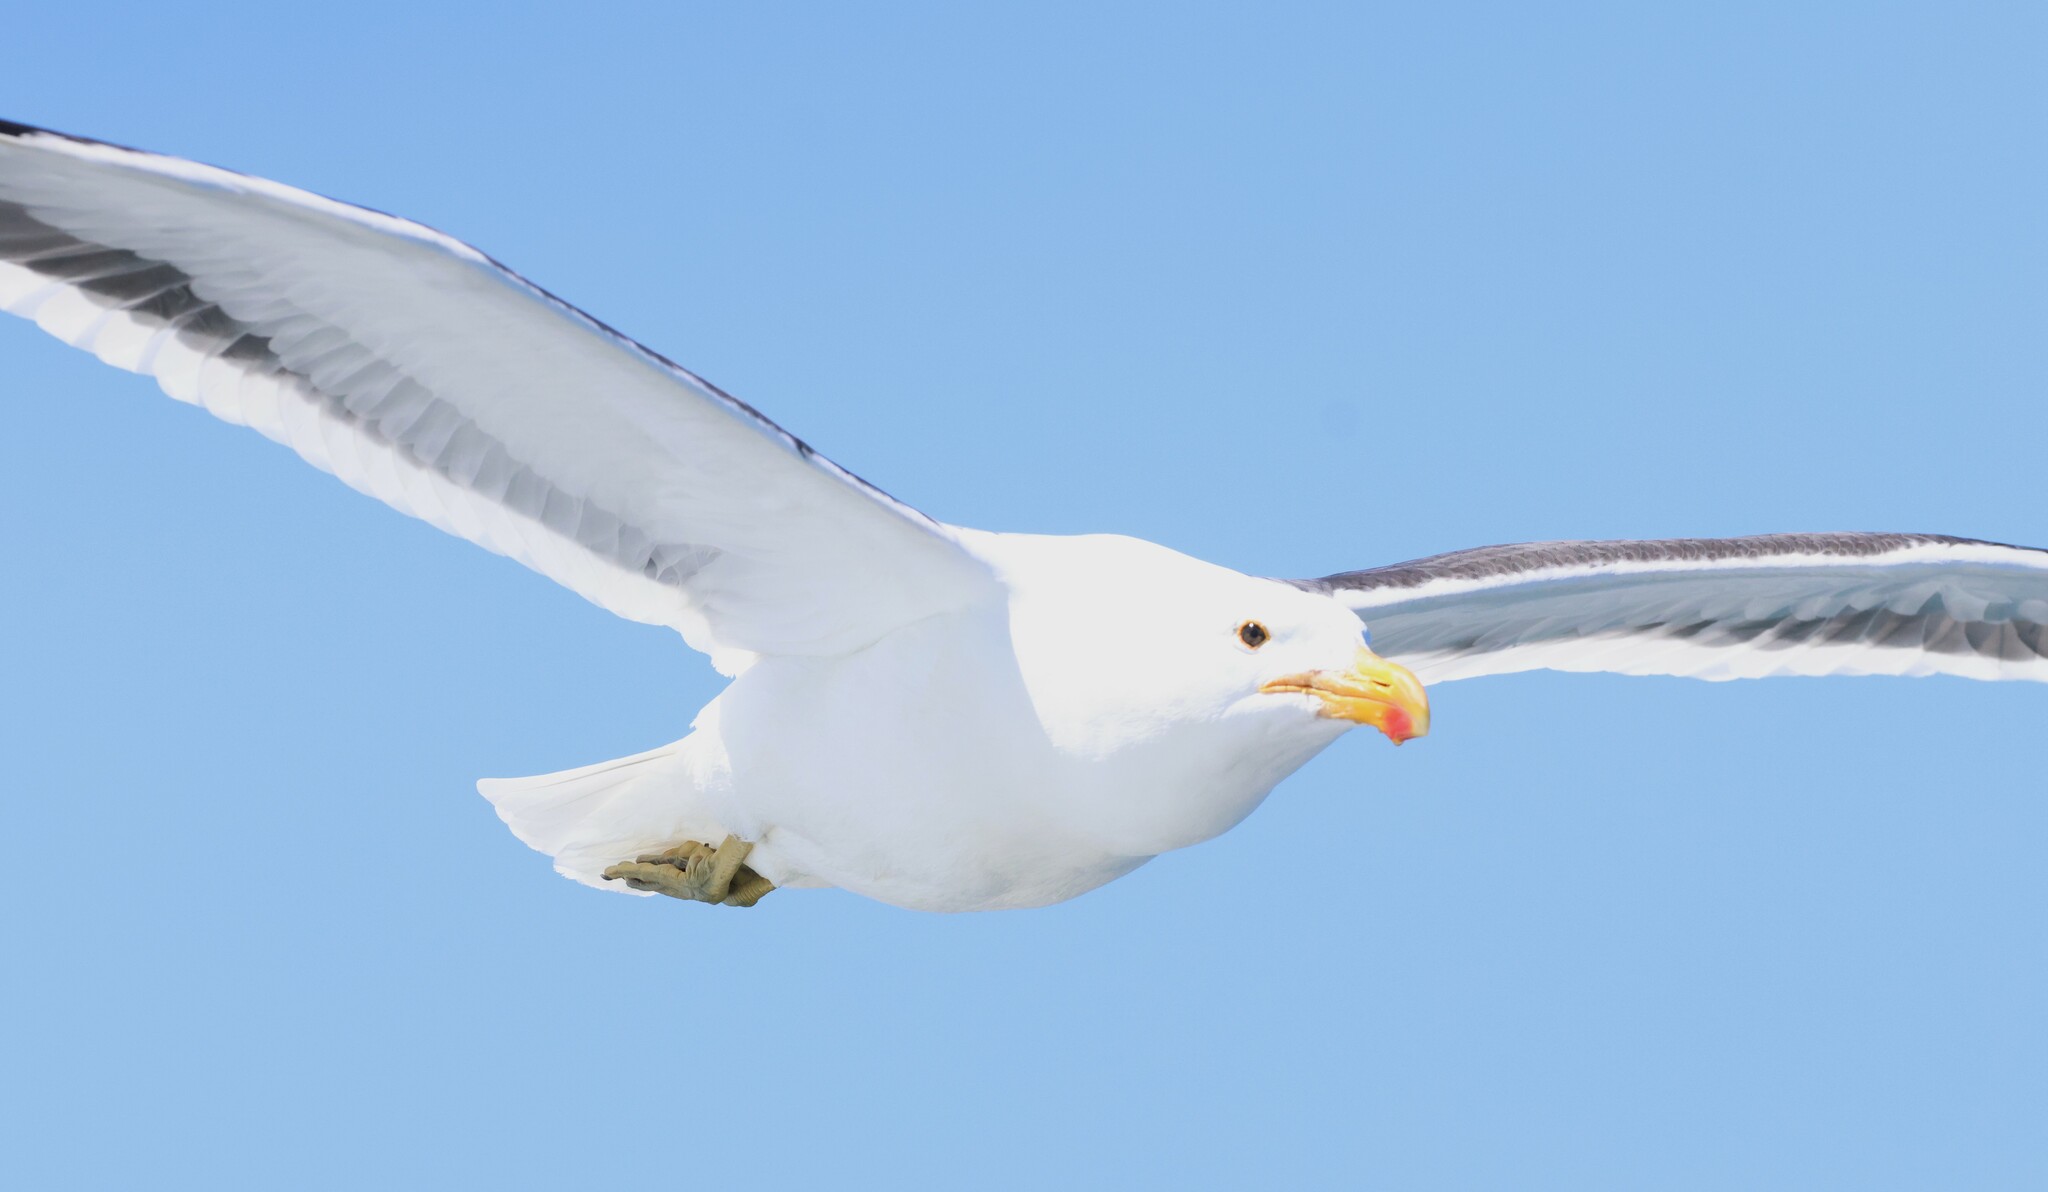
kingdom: Animalia
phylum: Chordata
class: Aves
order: Charadriiformes
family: Laridae
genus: Larus
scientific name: Larus dominicanus
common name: Kelp gull
